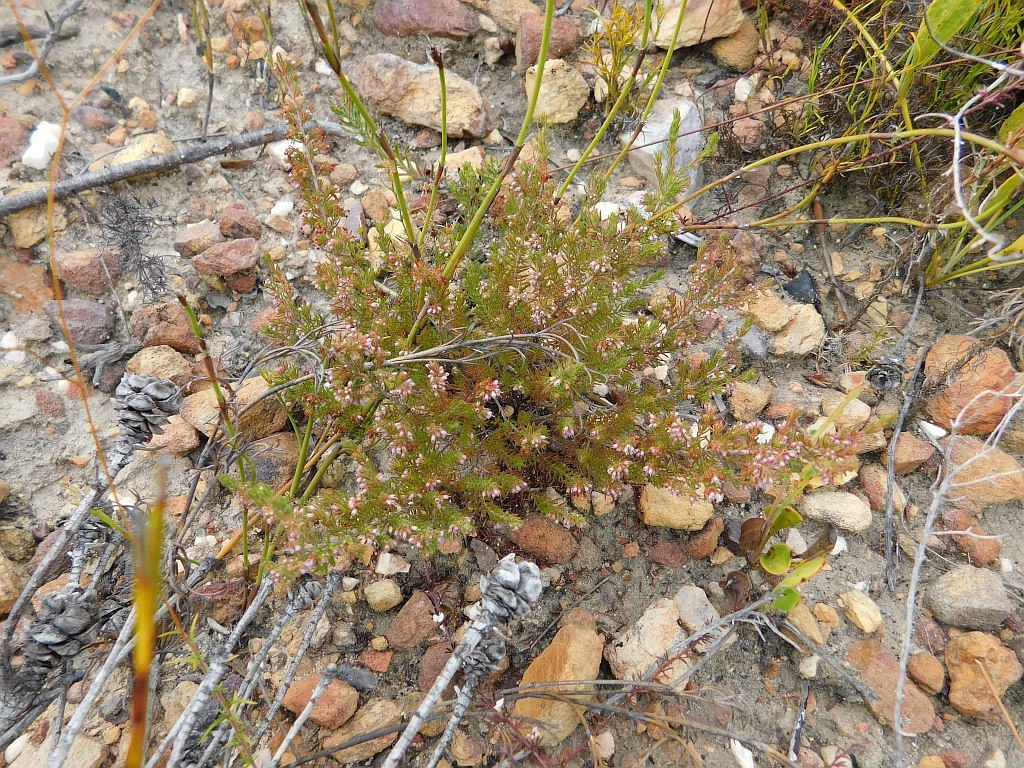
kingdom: Plantae
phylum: Tracheophyta
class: Magnoliopsida
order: Ericales
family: Ericaceae
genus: Erica
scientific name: Erica nudiflora
